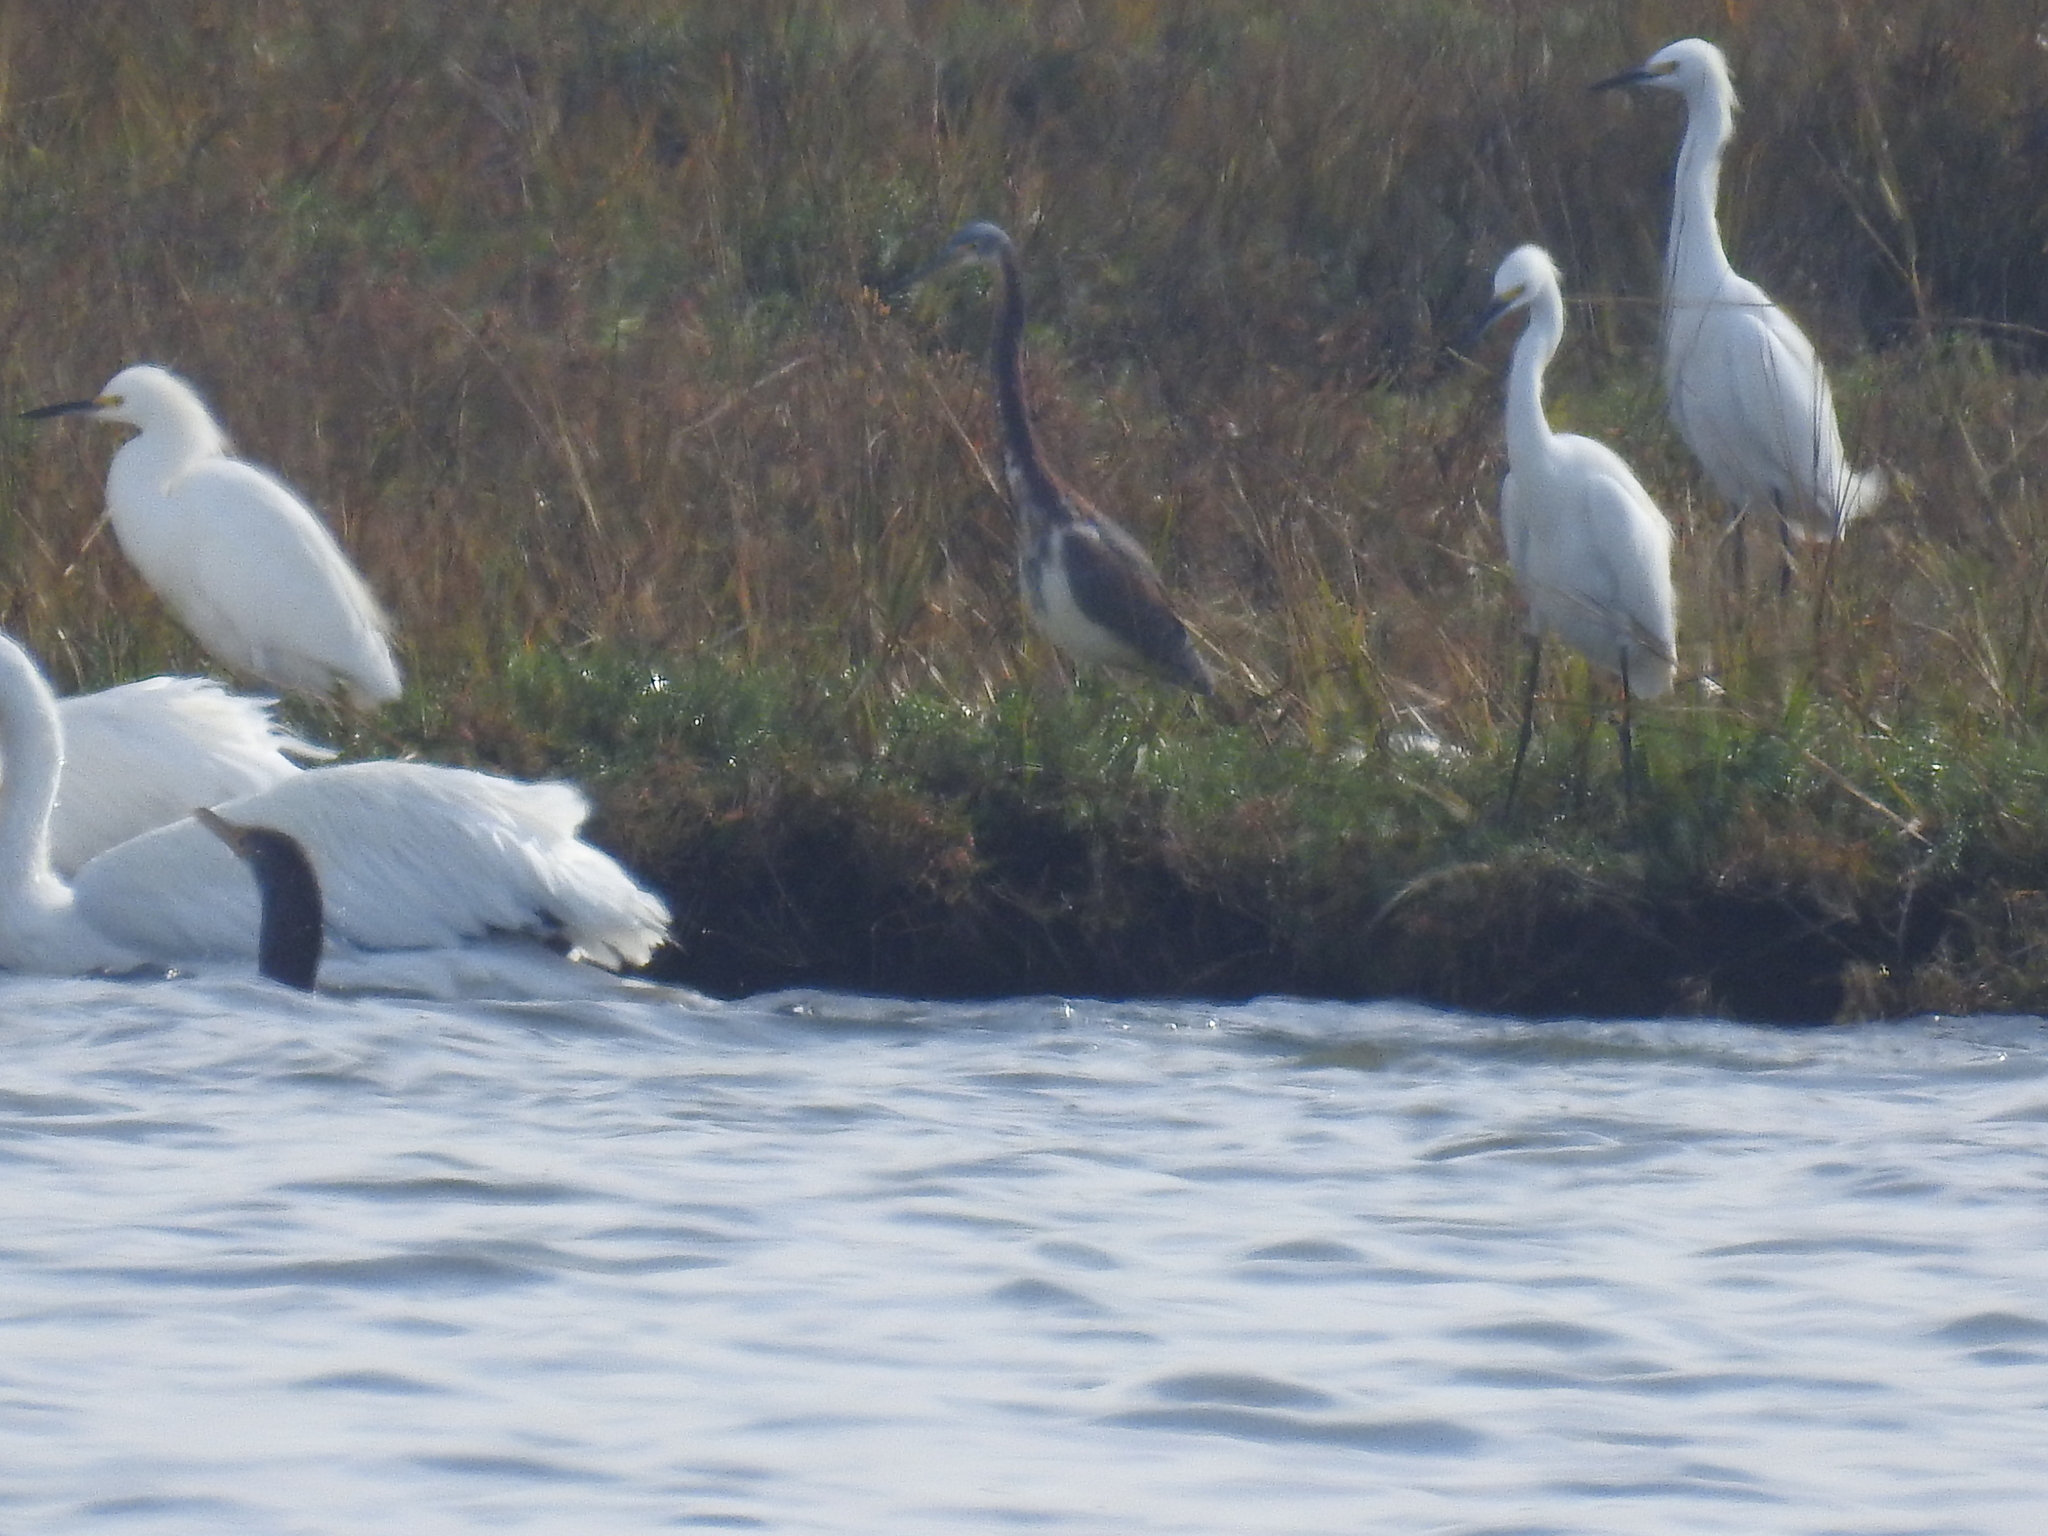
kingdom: Animalia
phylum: Chordata
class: Aves
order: Pelecaniformes
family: Ardeidae
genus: Egretta
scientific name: Egretta tricolor
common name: Tricolored heron
